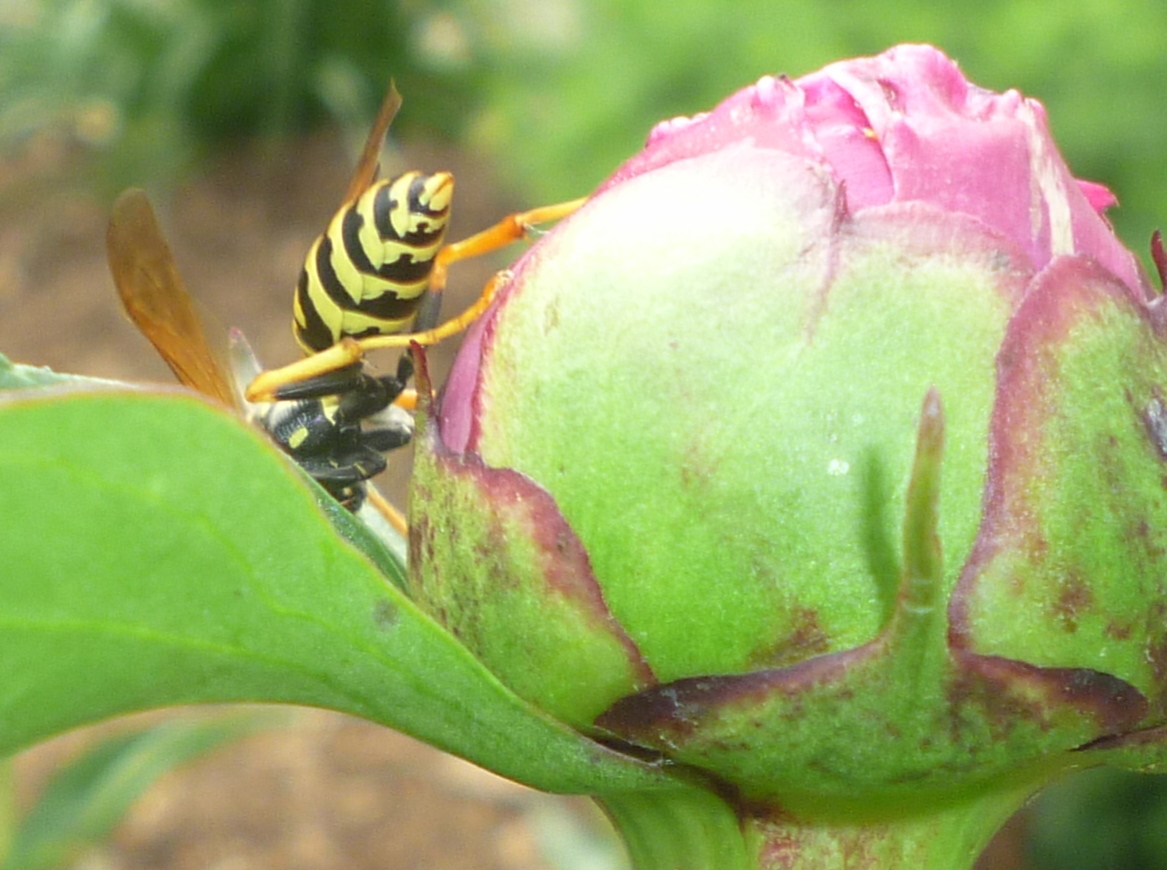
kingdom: Animalia
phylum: Arthropoda
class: Insecta
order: Hymenoptera
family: Eumenidae
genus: Polistes
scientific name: Polistes dominula
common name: Paper wasp
